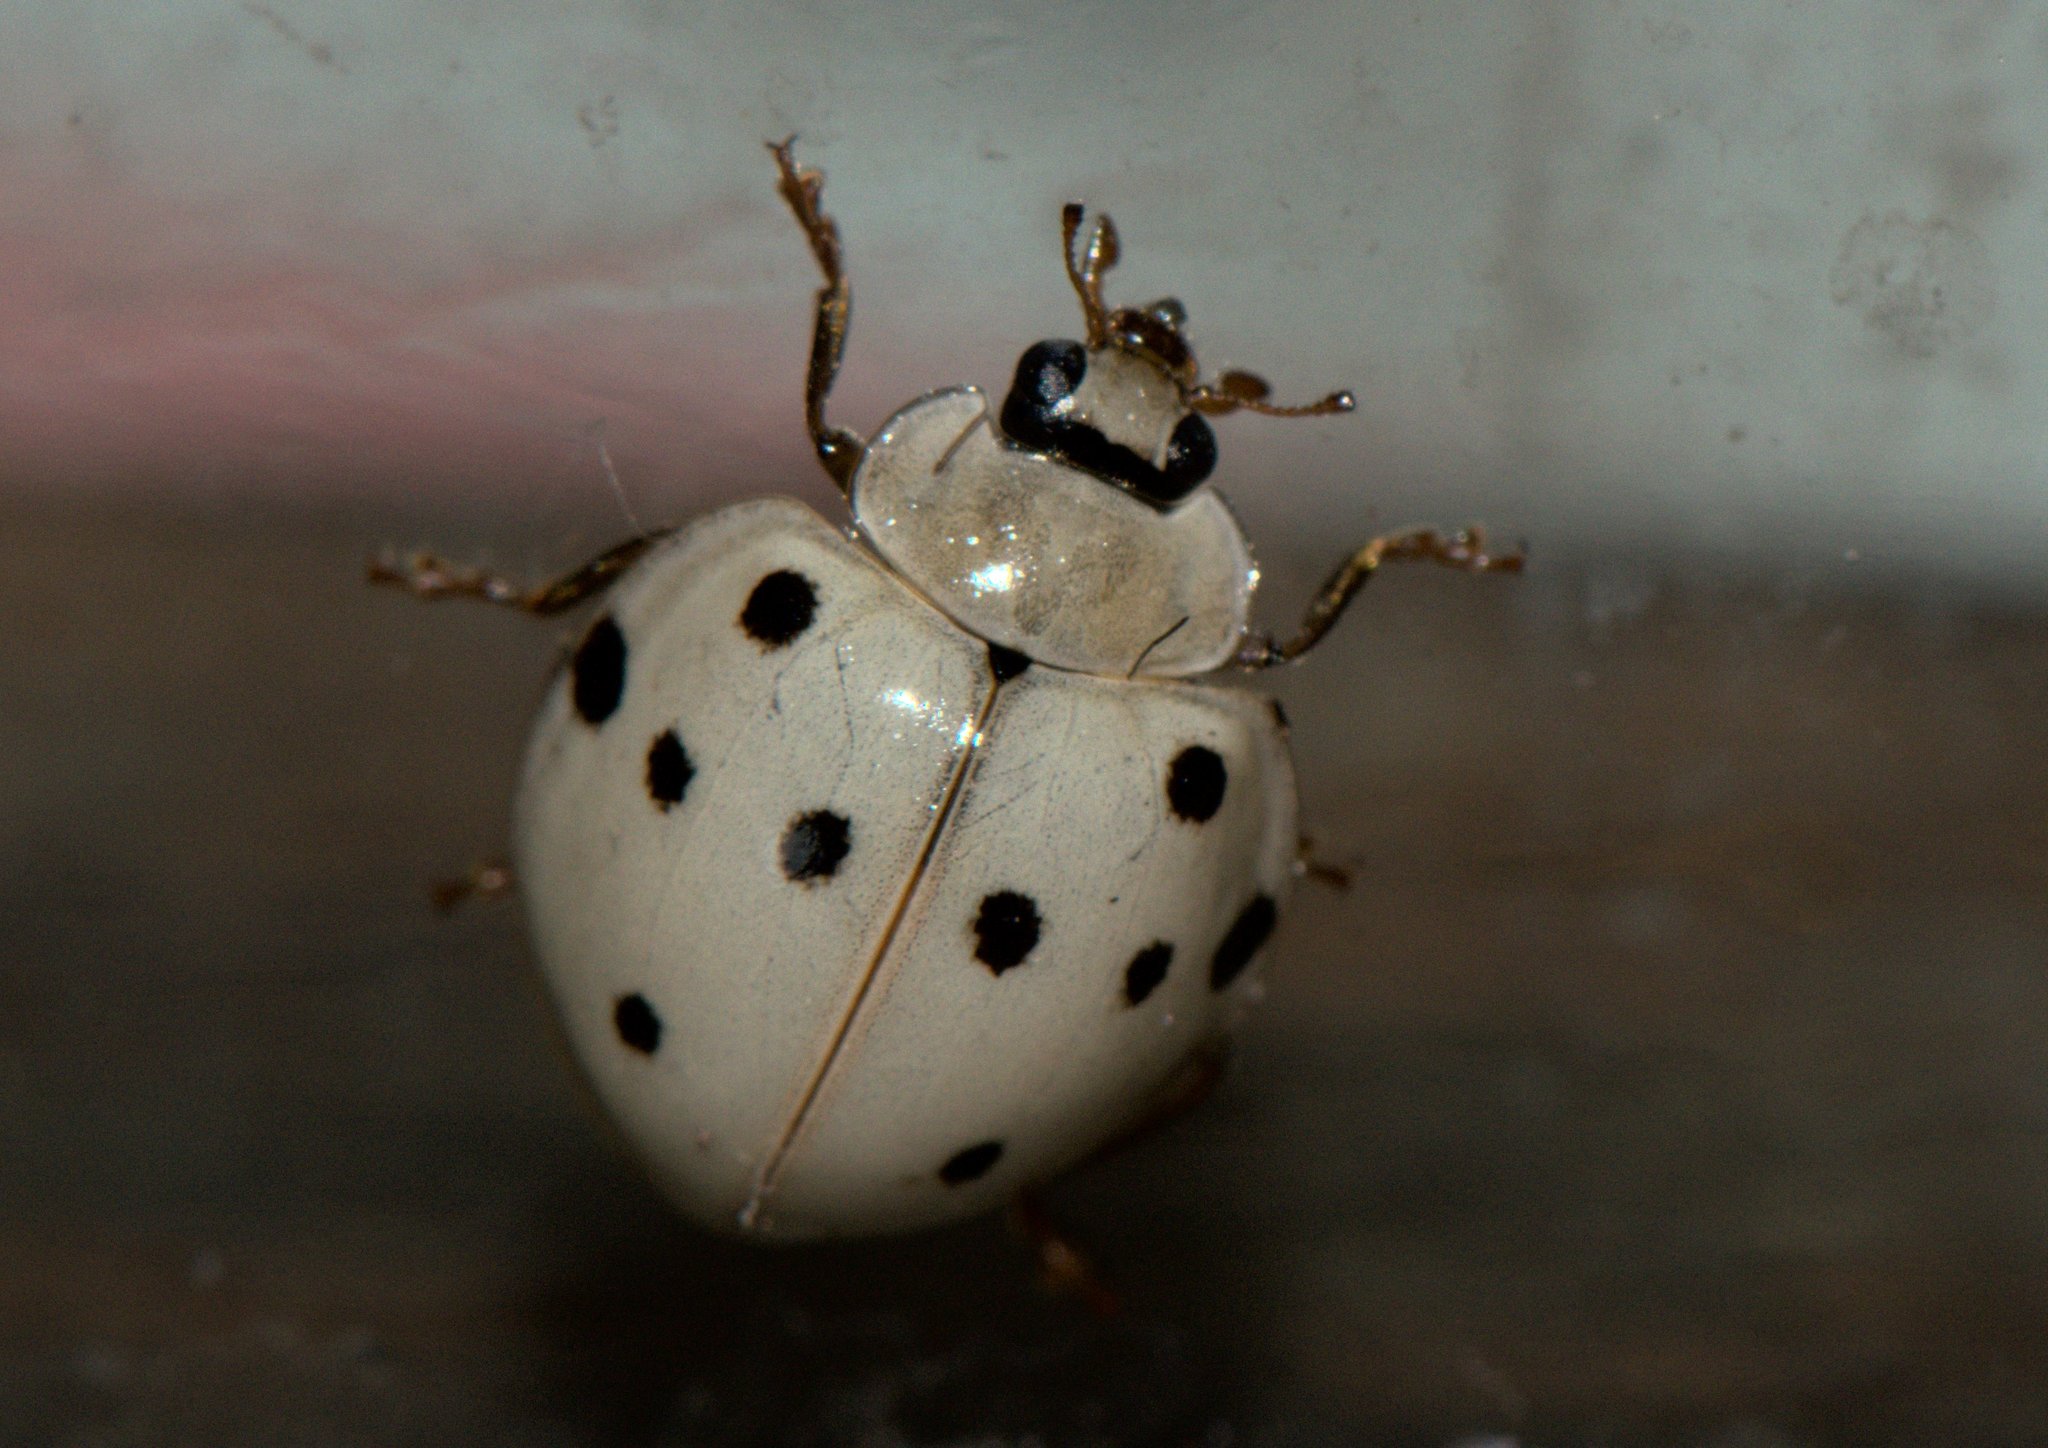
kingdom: Animalia
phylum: Arthropoda
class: Insecta
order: Coleoptera
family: Coccinellidae
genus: Harmonia
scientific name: Harmonia eucharis
